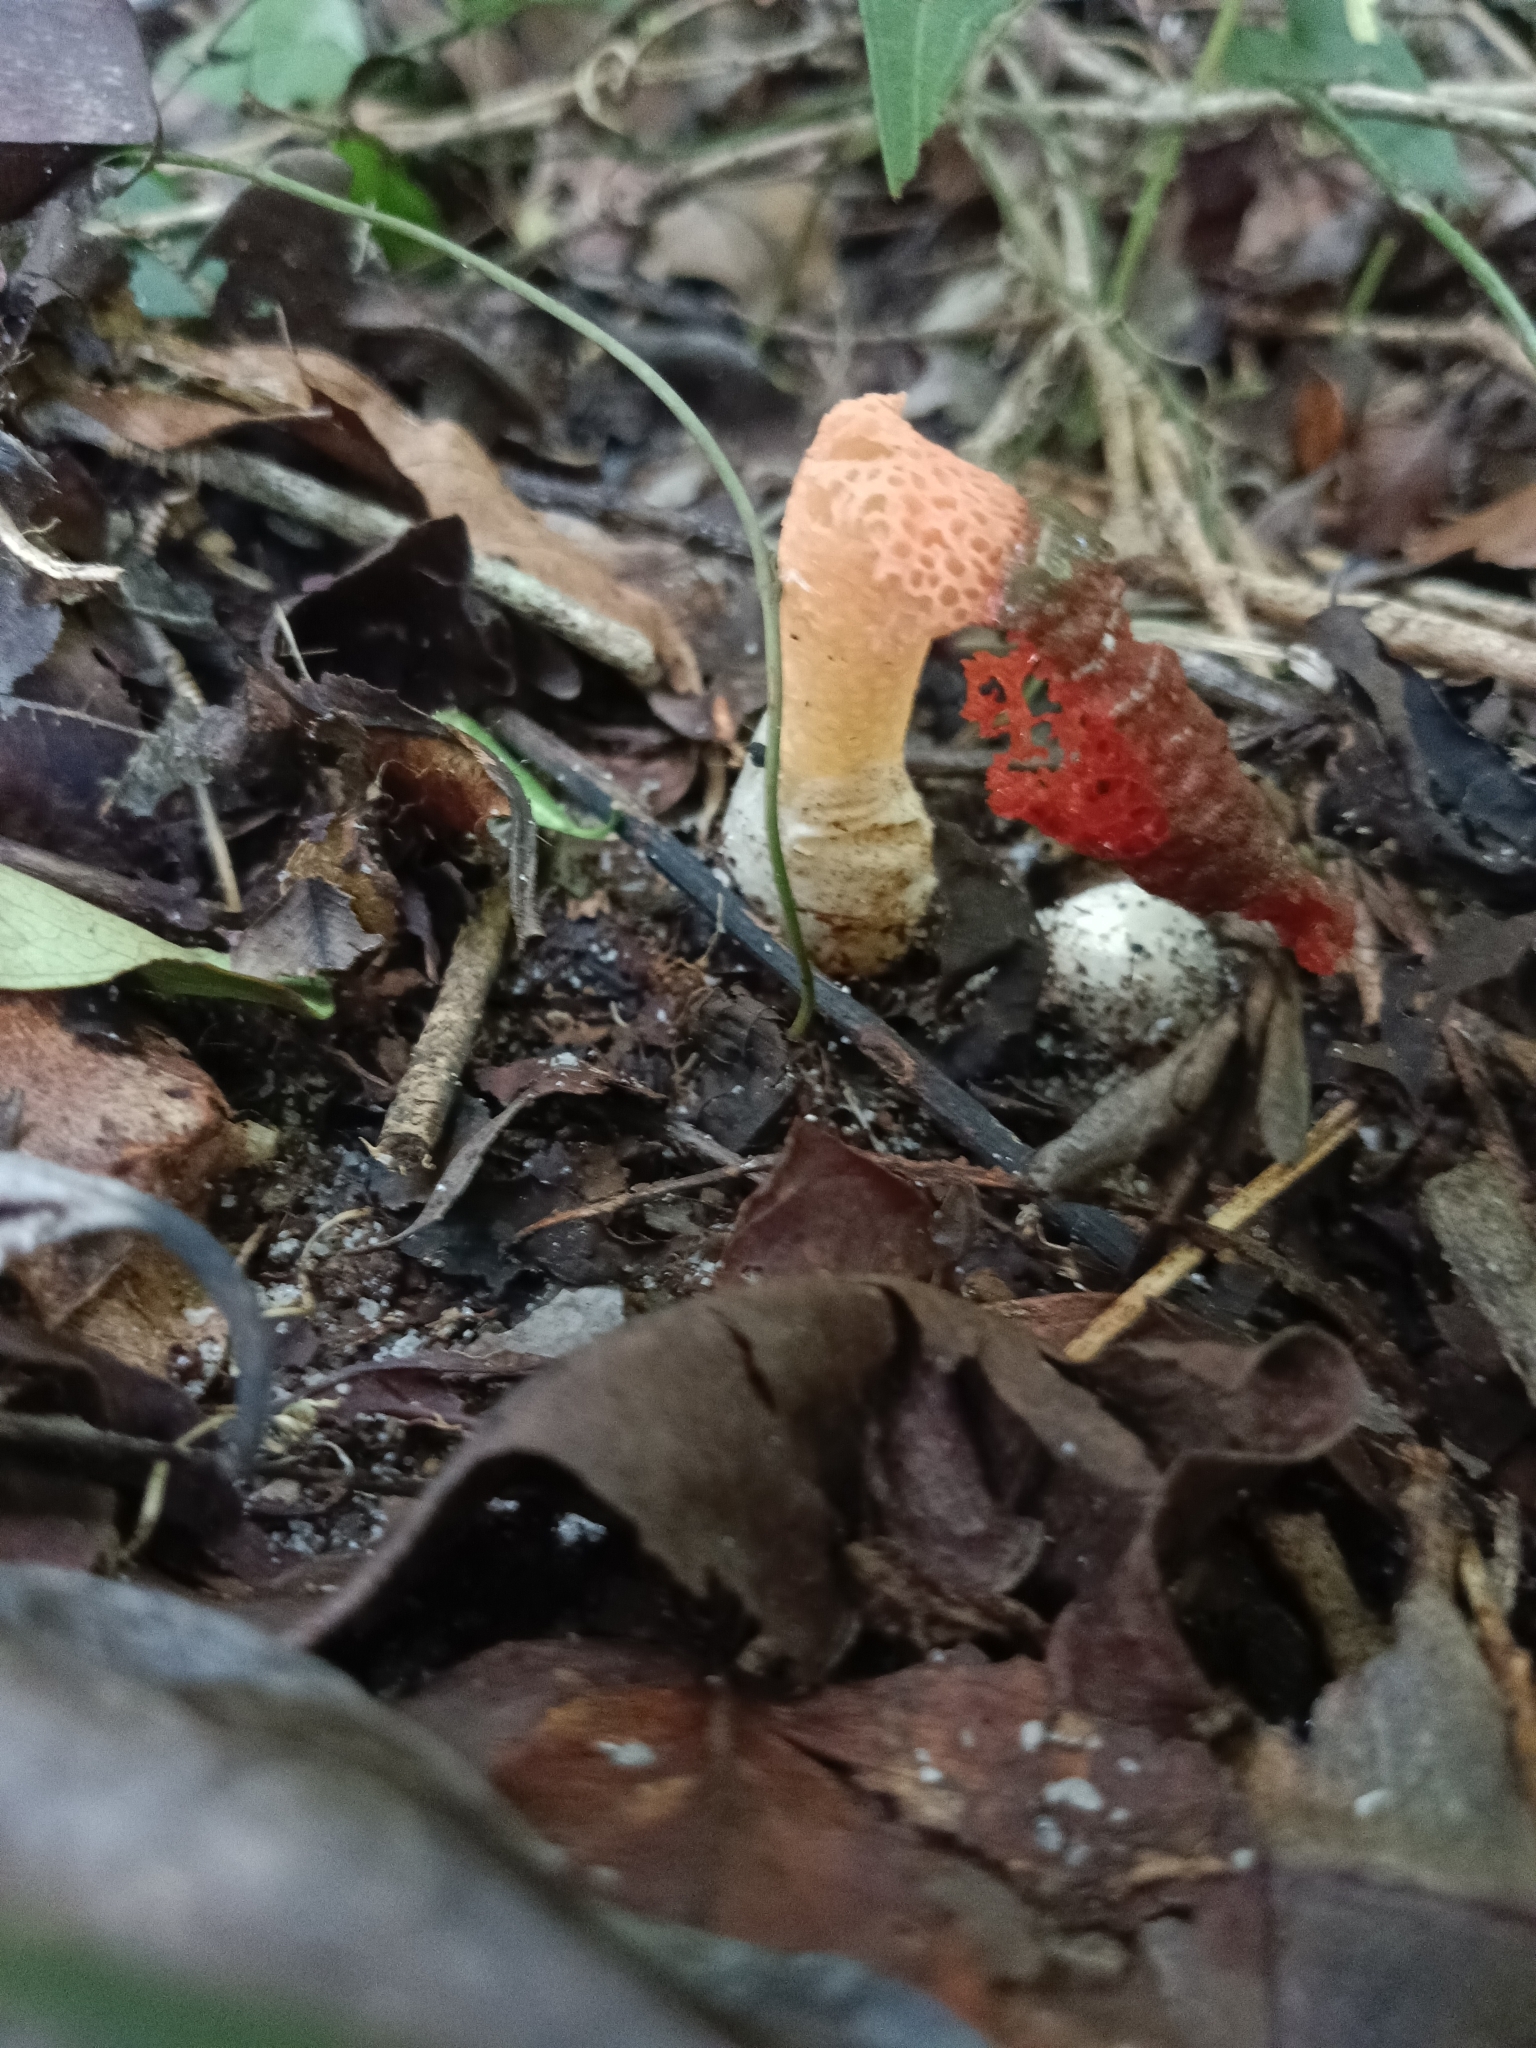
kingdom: Fungi
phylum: Basidiomycota
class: Agaricomycetes
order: Phallales
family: Phallaceae
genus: Mutinus
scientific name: Mutinus bambusinus
